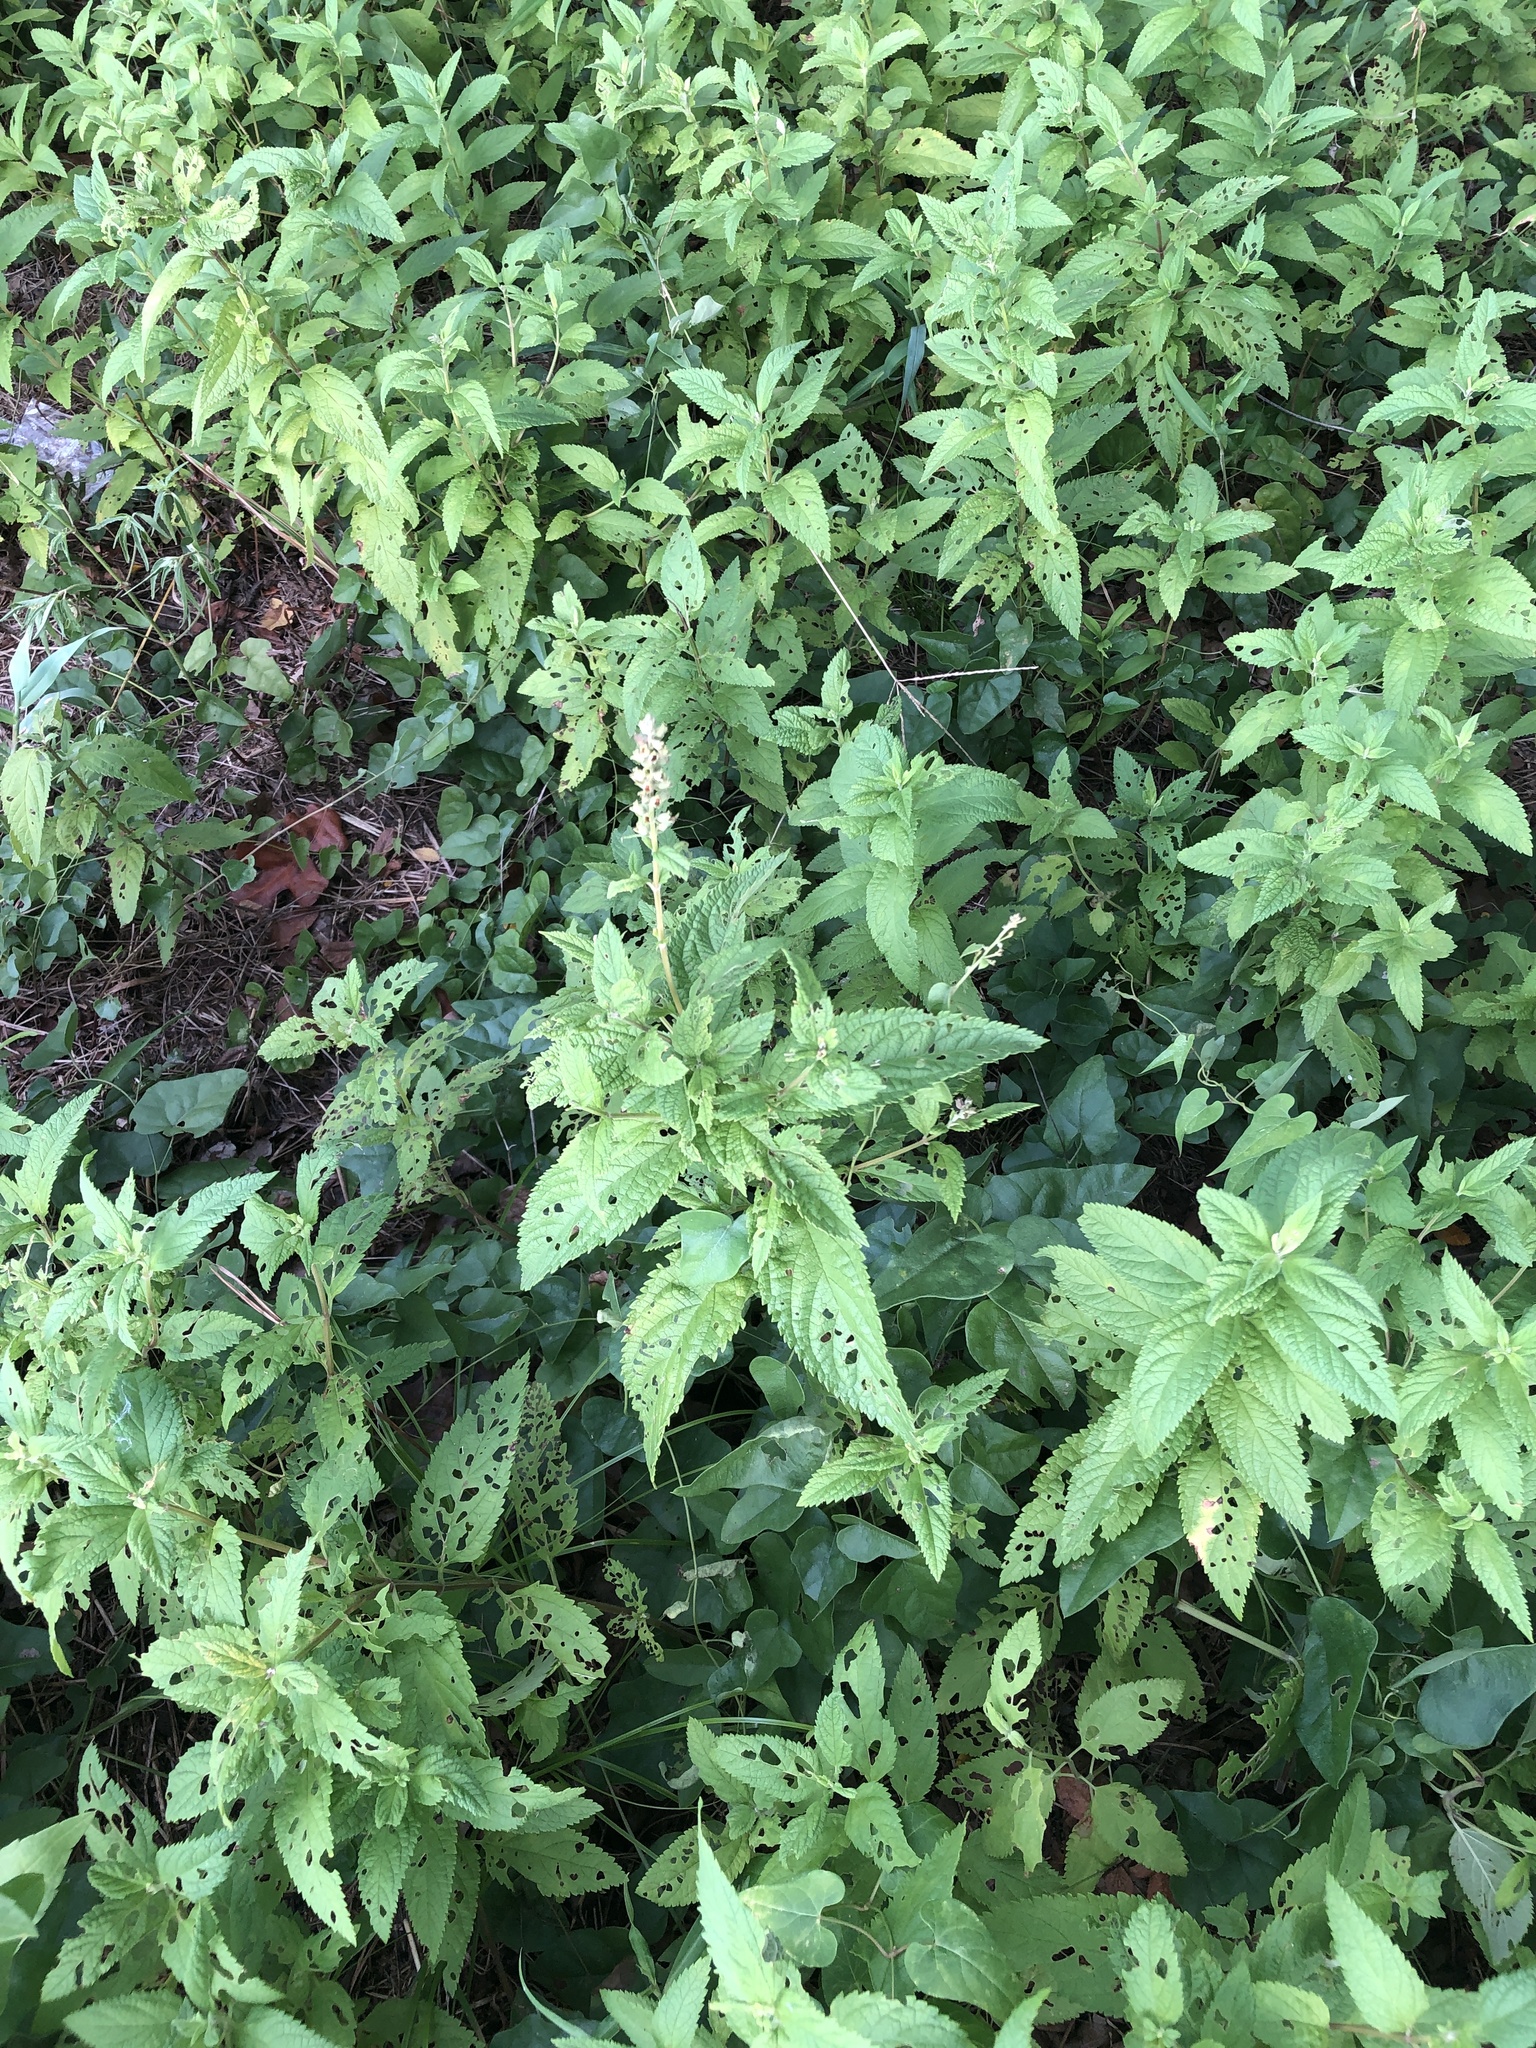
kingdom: Plantae
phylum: Tracheophyta
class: Magnoliopsida
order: Lamiales
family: Lamiaceae
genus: Teucrium
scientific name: Teucrium canadense
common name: American germander
